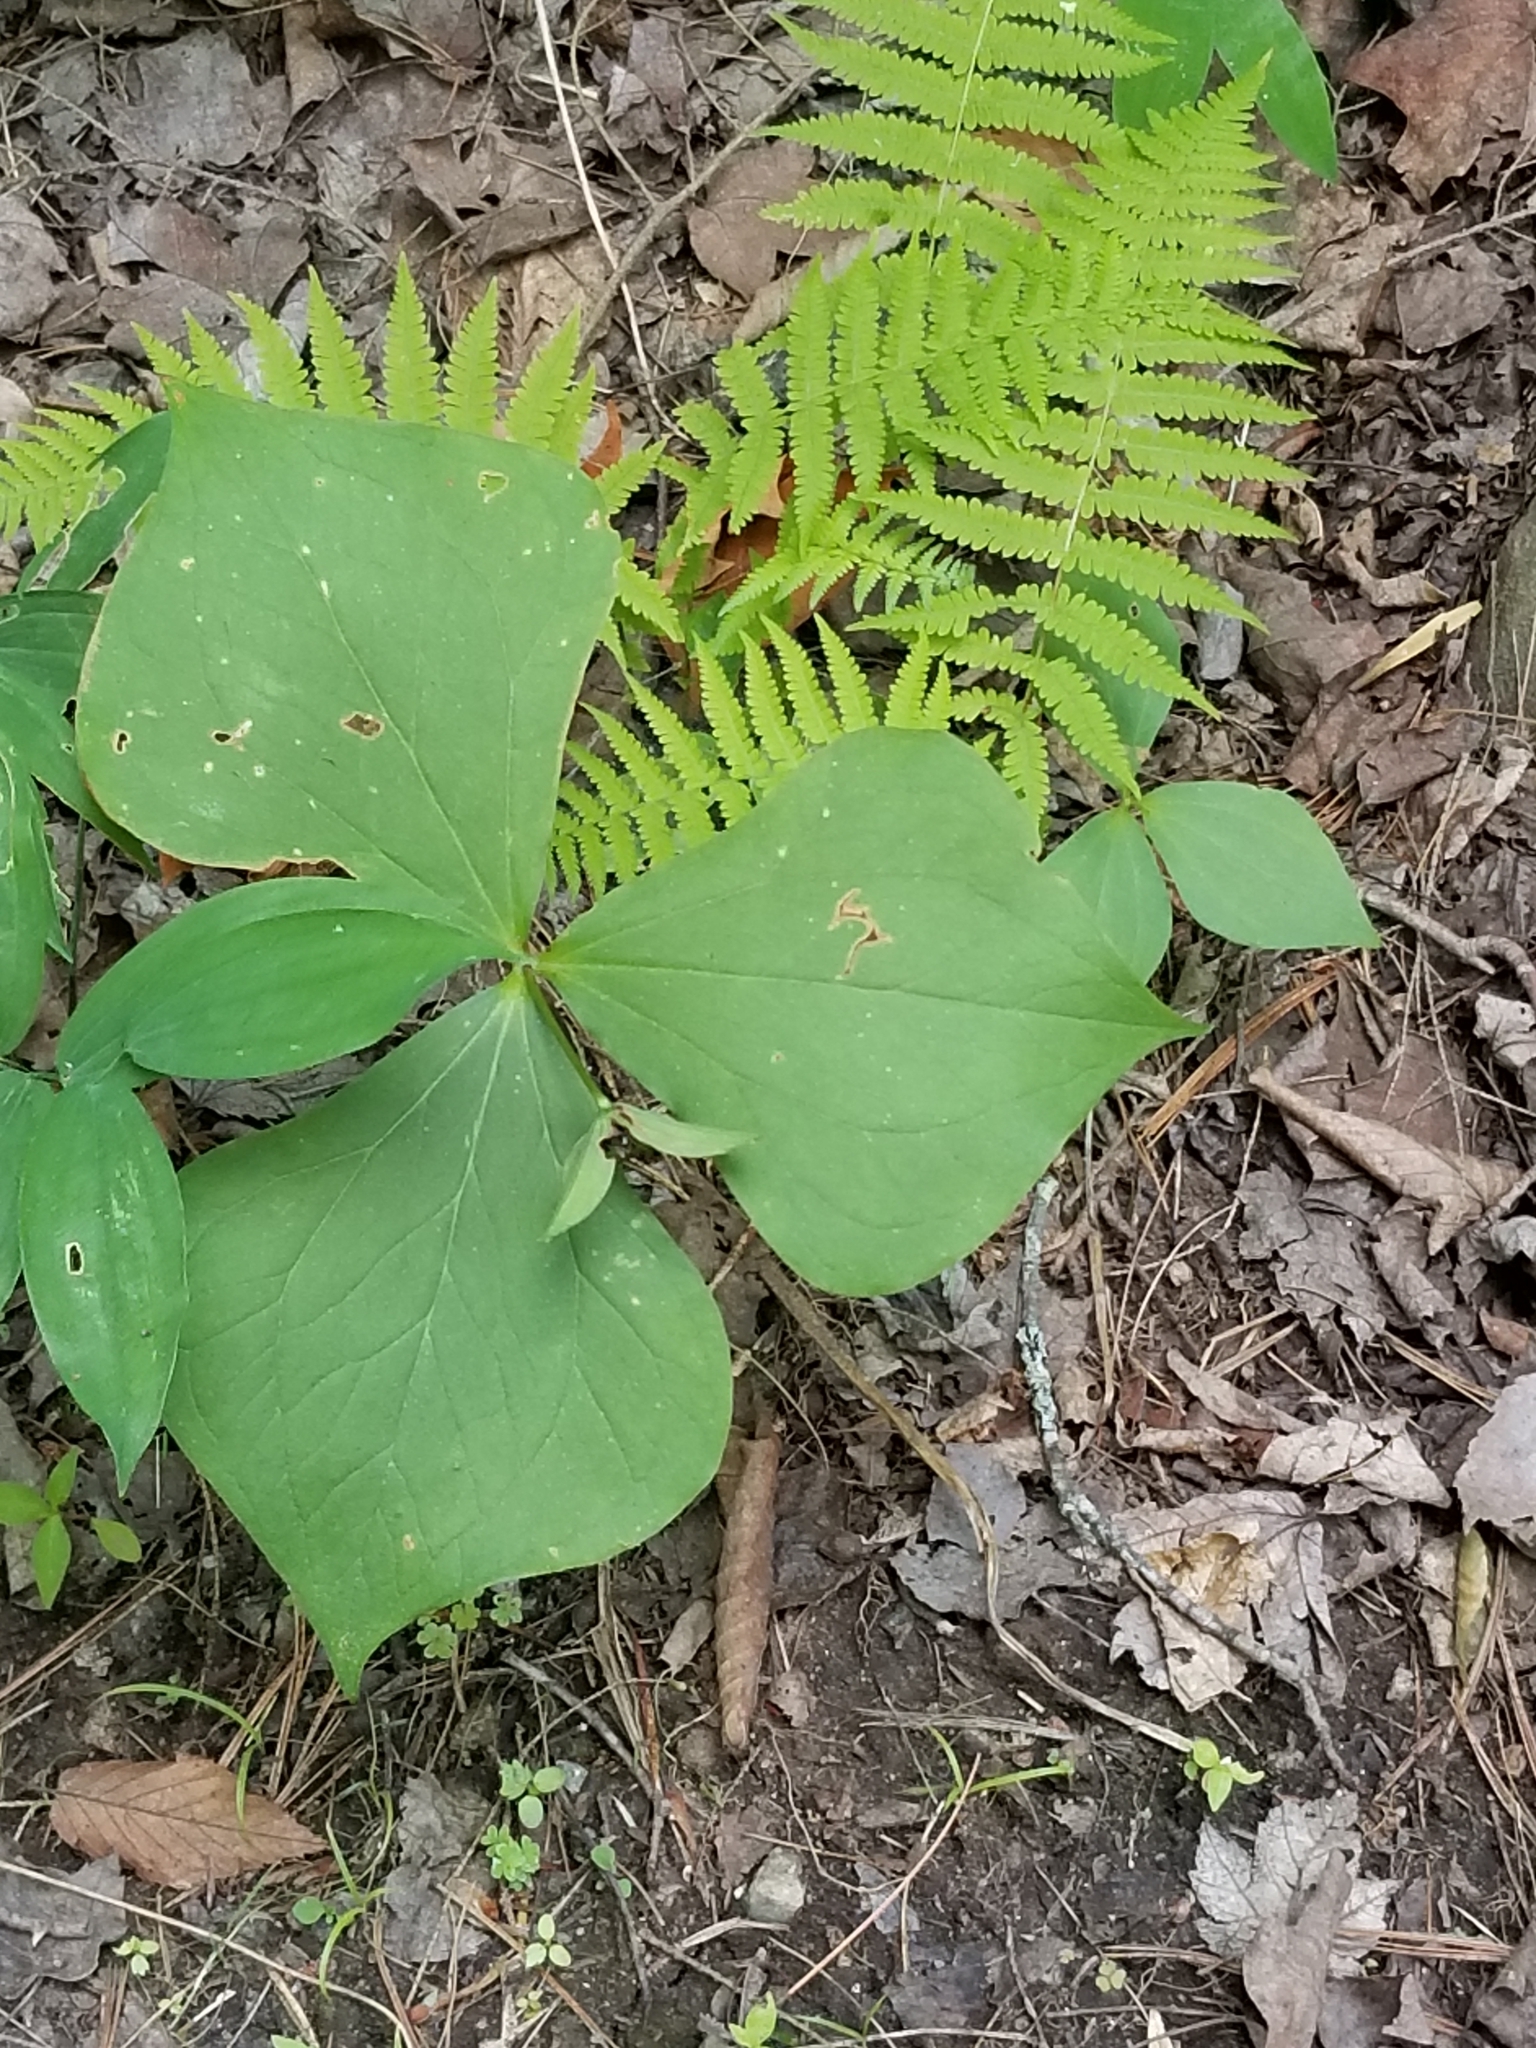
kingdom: Plantae
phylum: Tracheophyta
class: Liliopsida
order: Liliales
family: Melanthiaceae
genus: Trillium
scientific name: Trillium erectum
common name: Purple trillium
